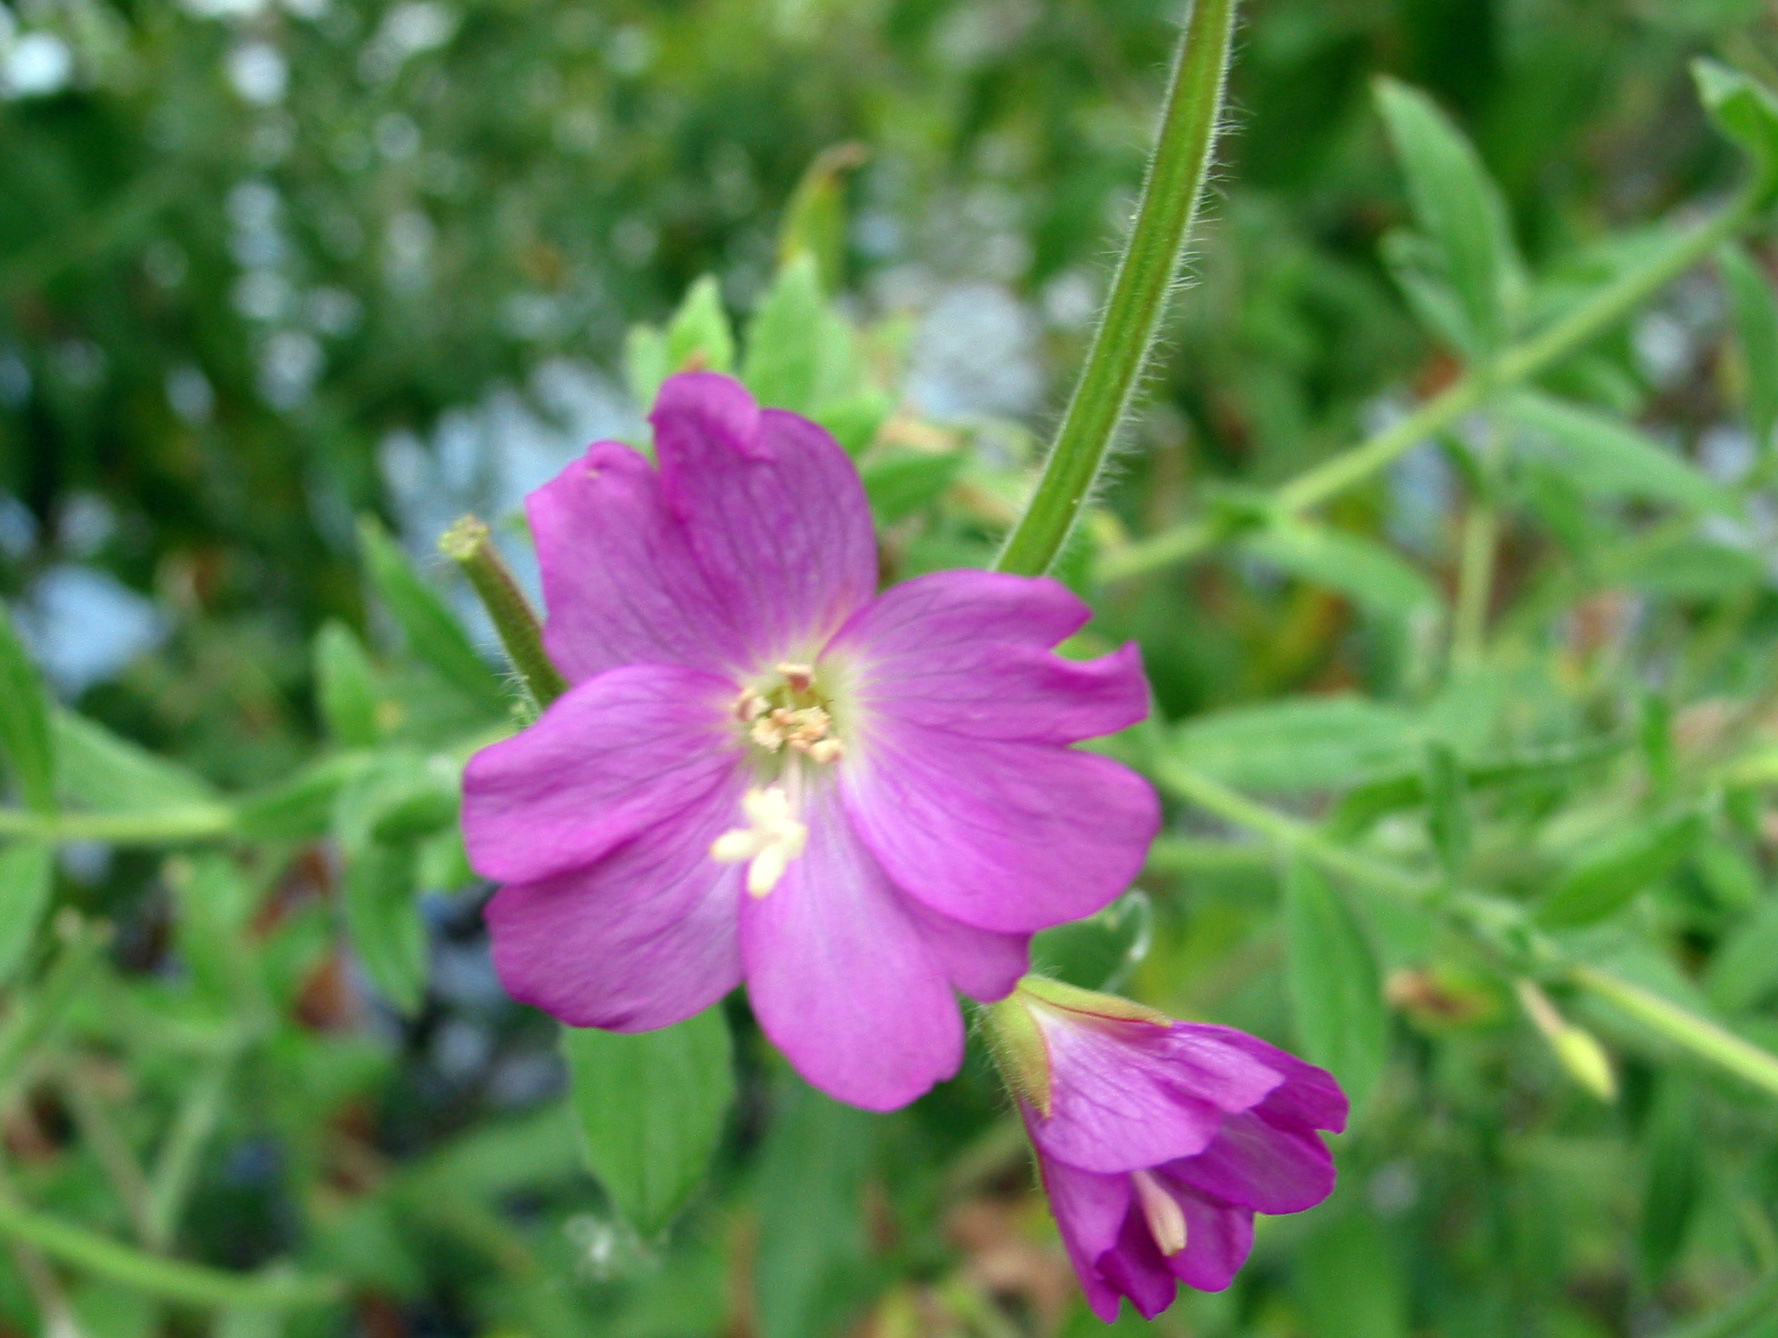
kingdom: Plantae
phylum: Tracheophyta
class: Magnoliopsida
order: Myrtales
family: Onagraceae
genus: Epilobium
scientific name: Epilobium hirsutum
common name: Great willowherb
